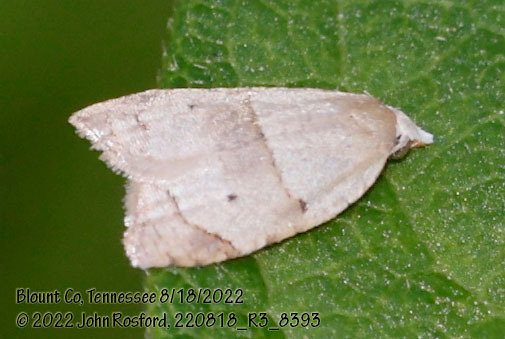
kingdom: Animalia
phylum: Arthropoda
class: Insecta
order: Lepidoptera
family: Tortricidae
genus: Coelostathma
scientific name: Coelostathma discopunctana
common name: Batman moth
